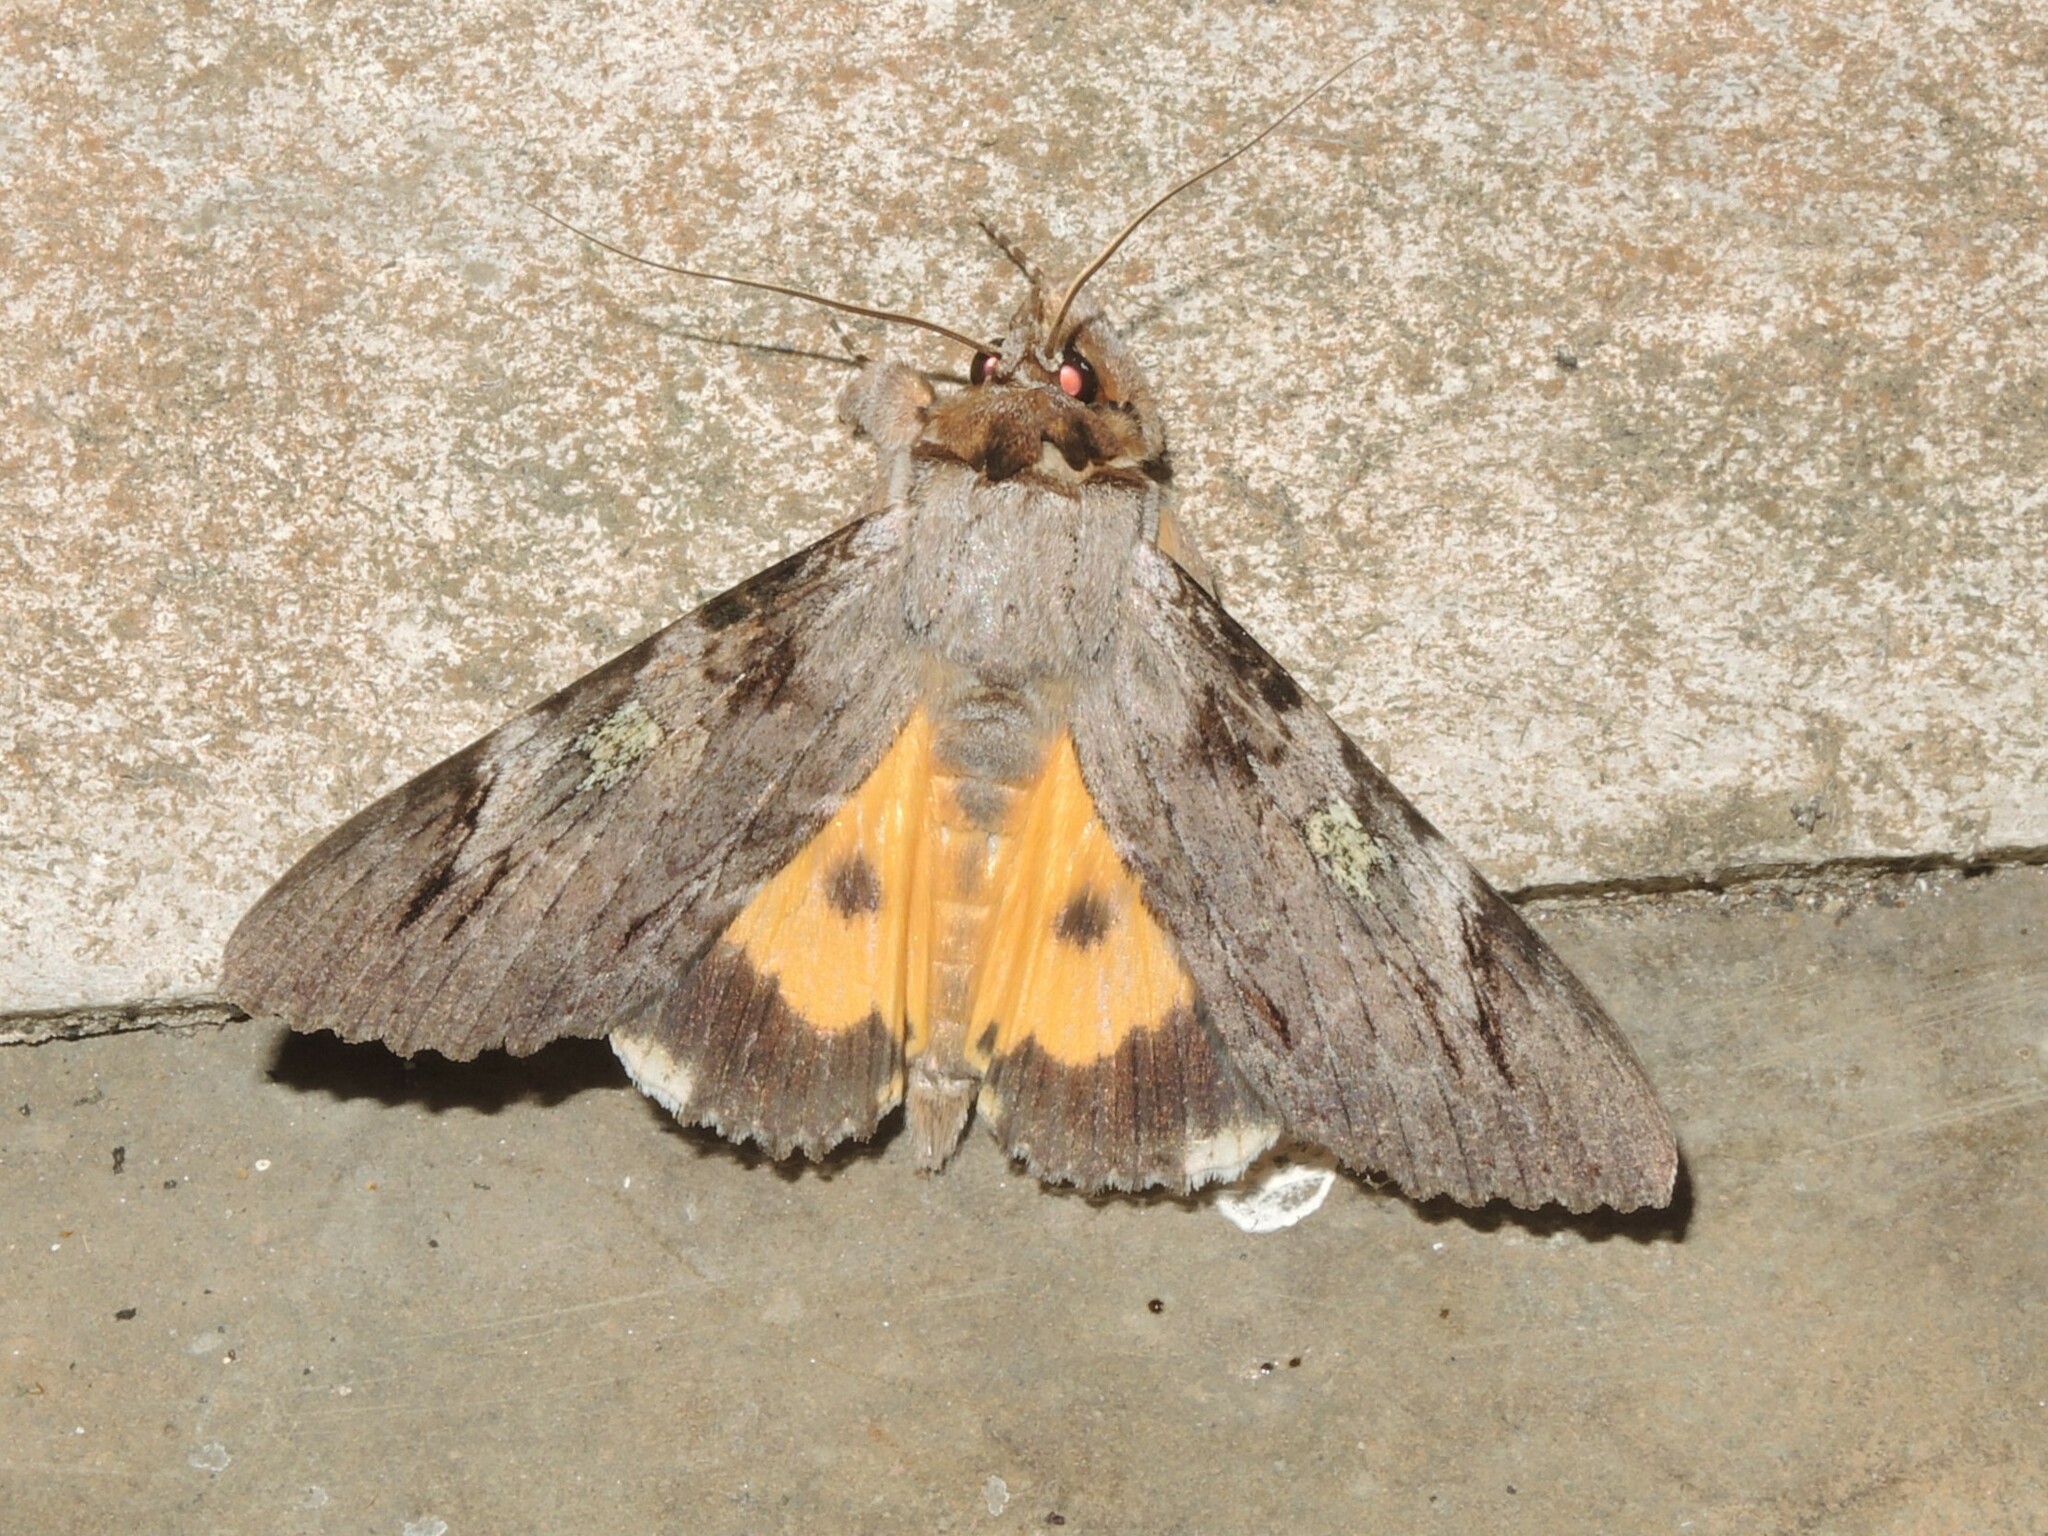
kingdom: Animalia
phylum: Arthropoda
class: Insecta
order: Lepidoptera
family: Erebidae
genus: Catocala
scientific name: Catocala macula
